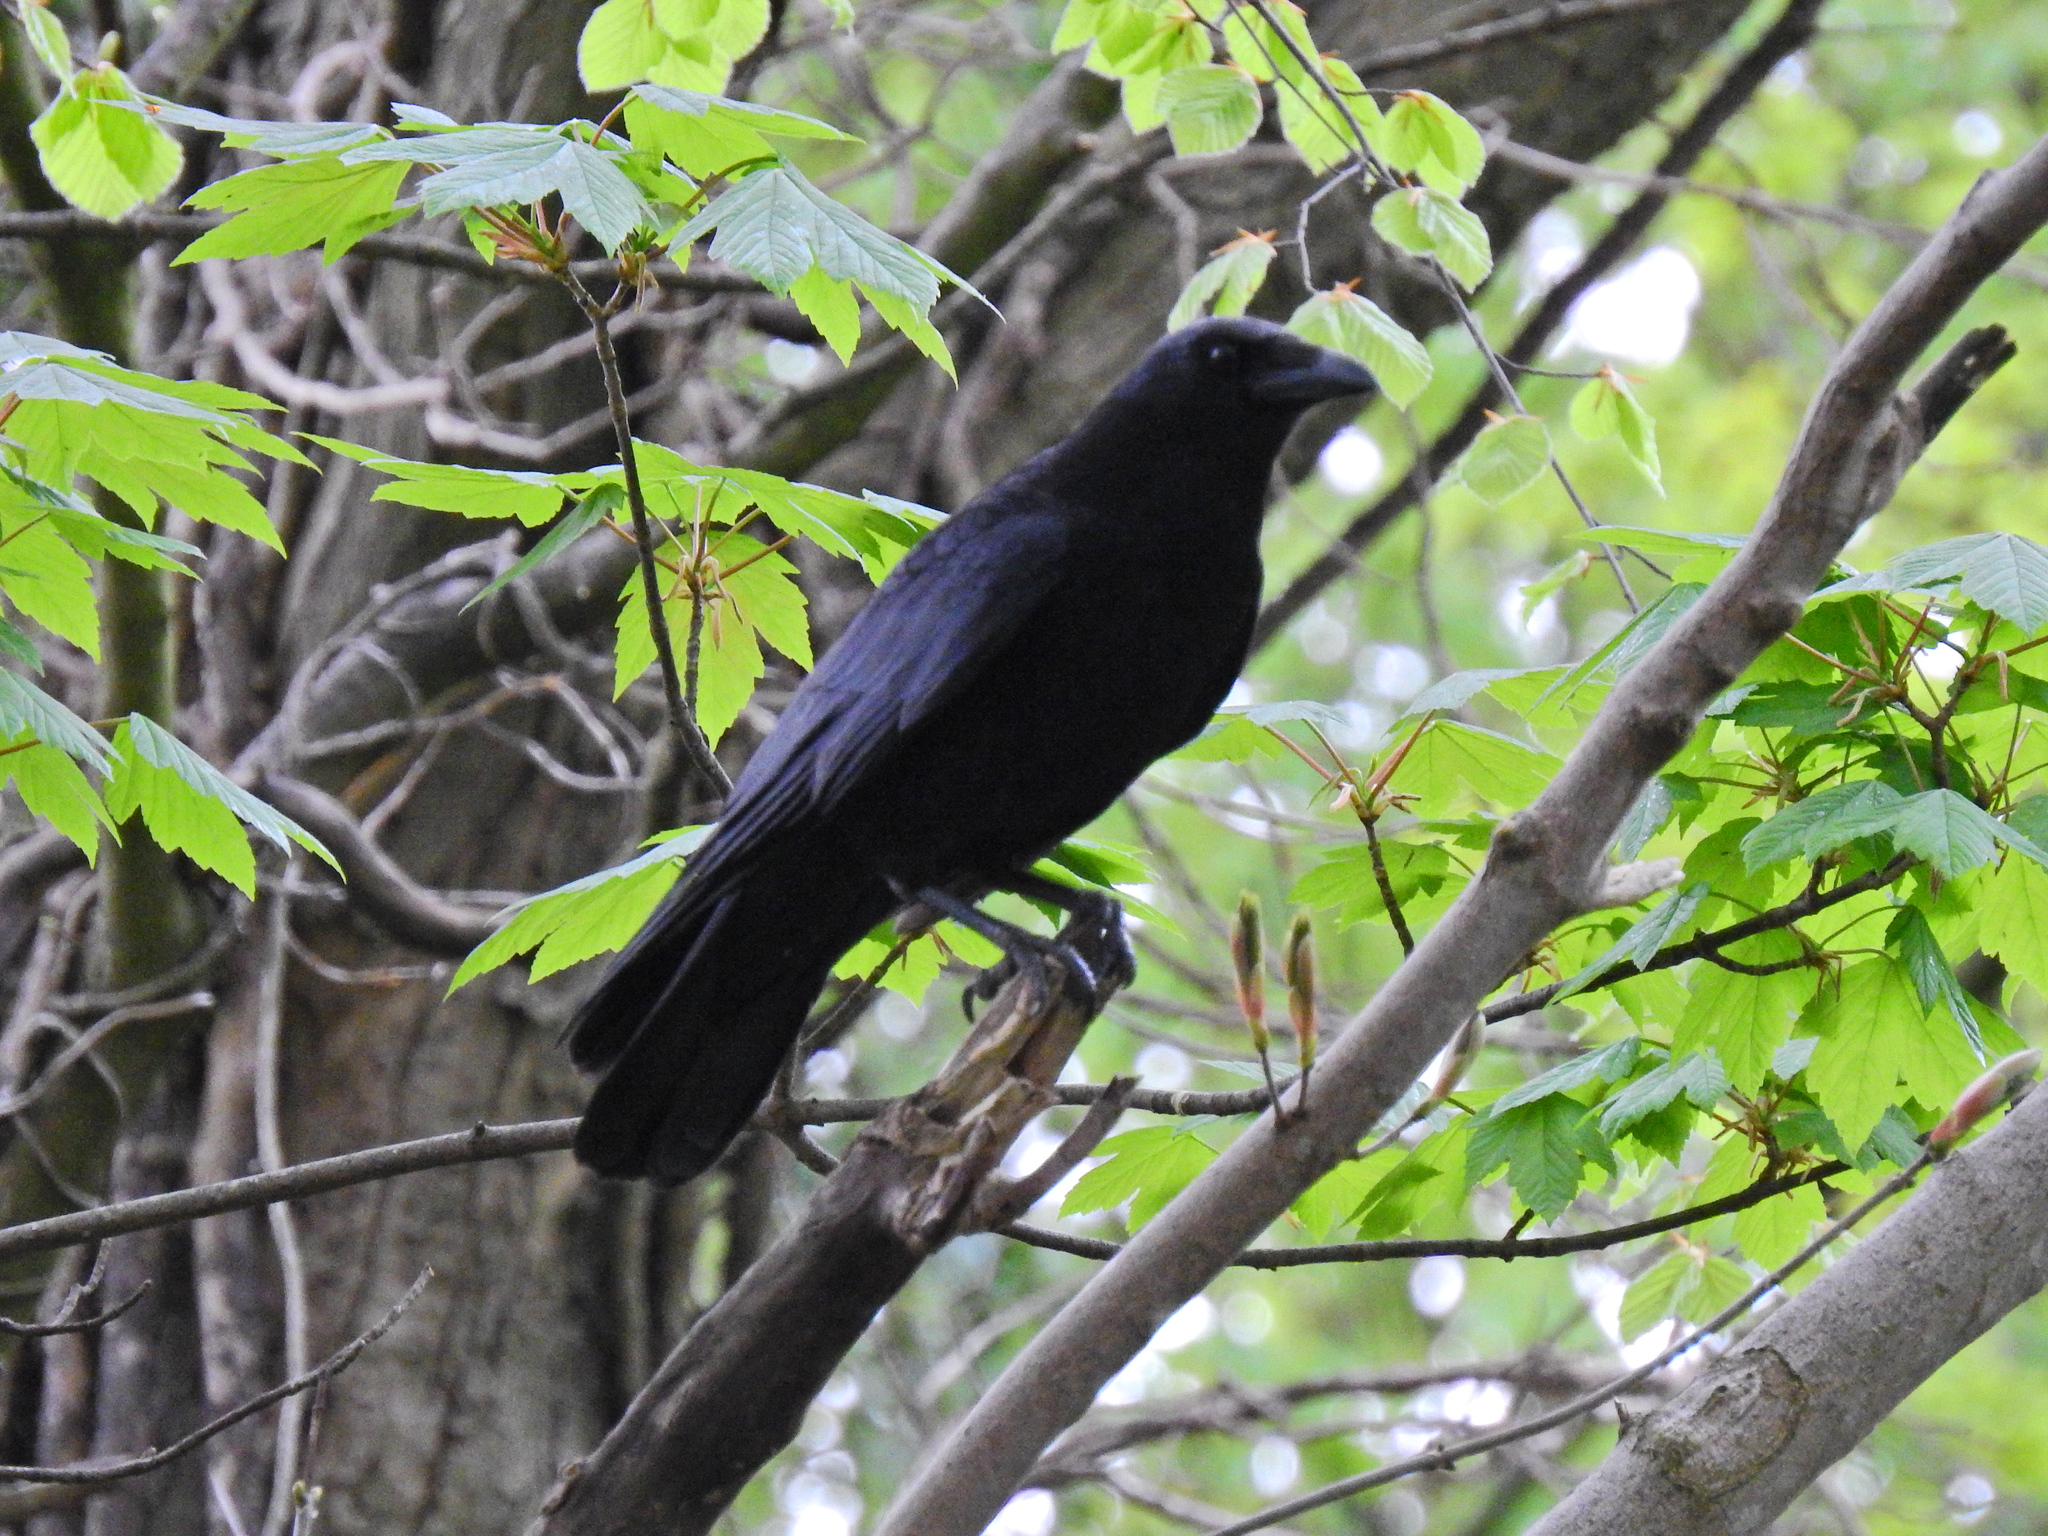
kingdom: Animalia
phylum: Chordata
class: Aves
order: Passeriformes
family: Corvidae
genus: Corvus
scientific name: Corvus corone
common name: Carrion crow
